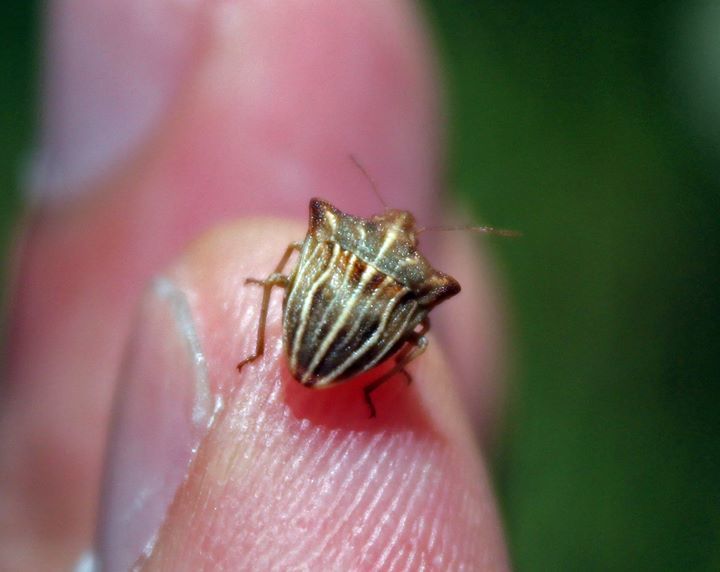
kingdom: Animalia
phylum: Arthropoda
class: Insecta
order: Hemiptera
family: Pentatomidae
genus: Ancyrosoma
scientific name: Ancyrosoma leucogrammes
